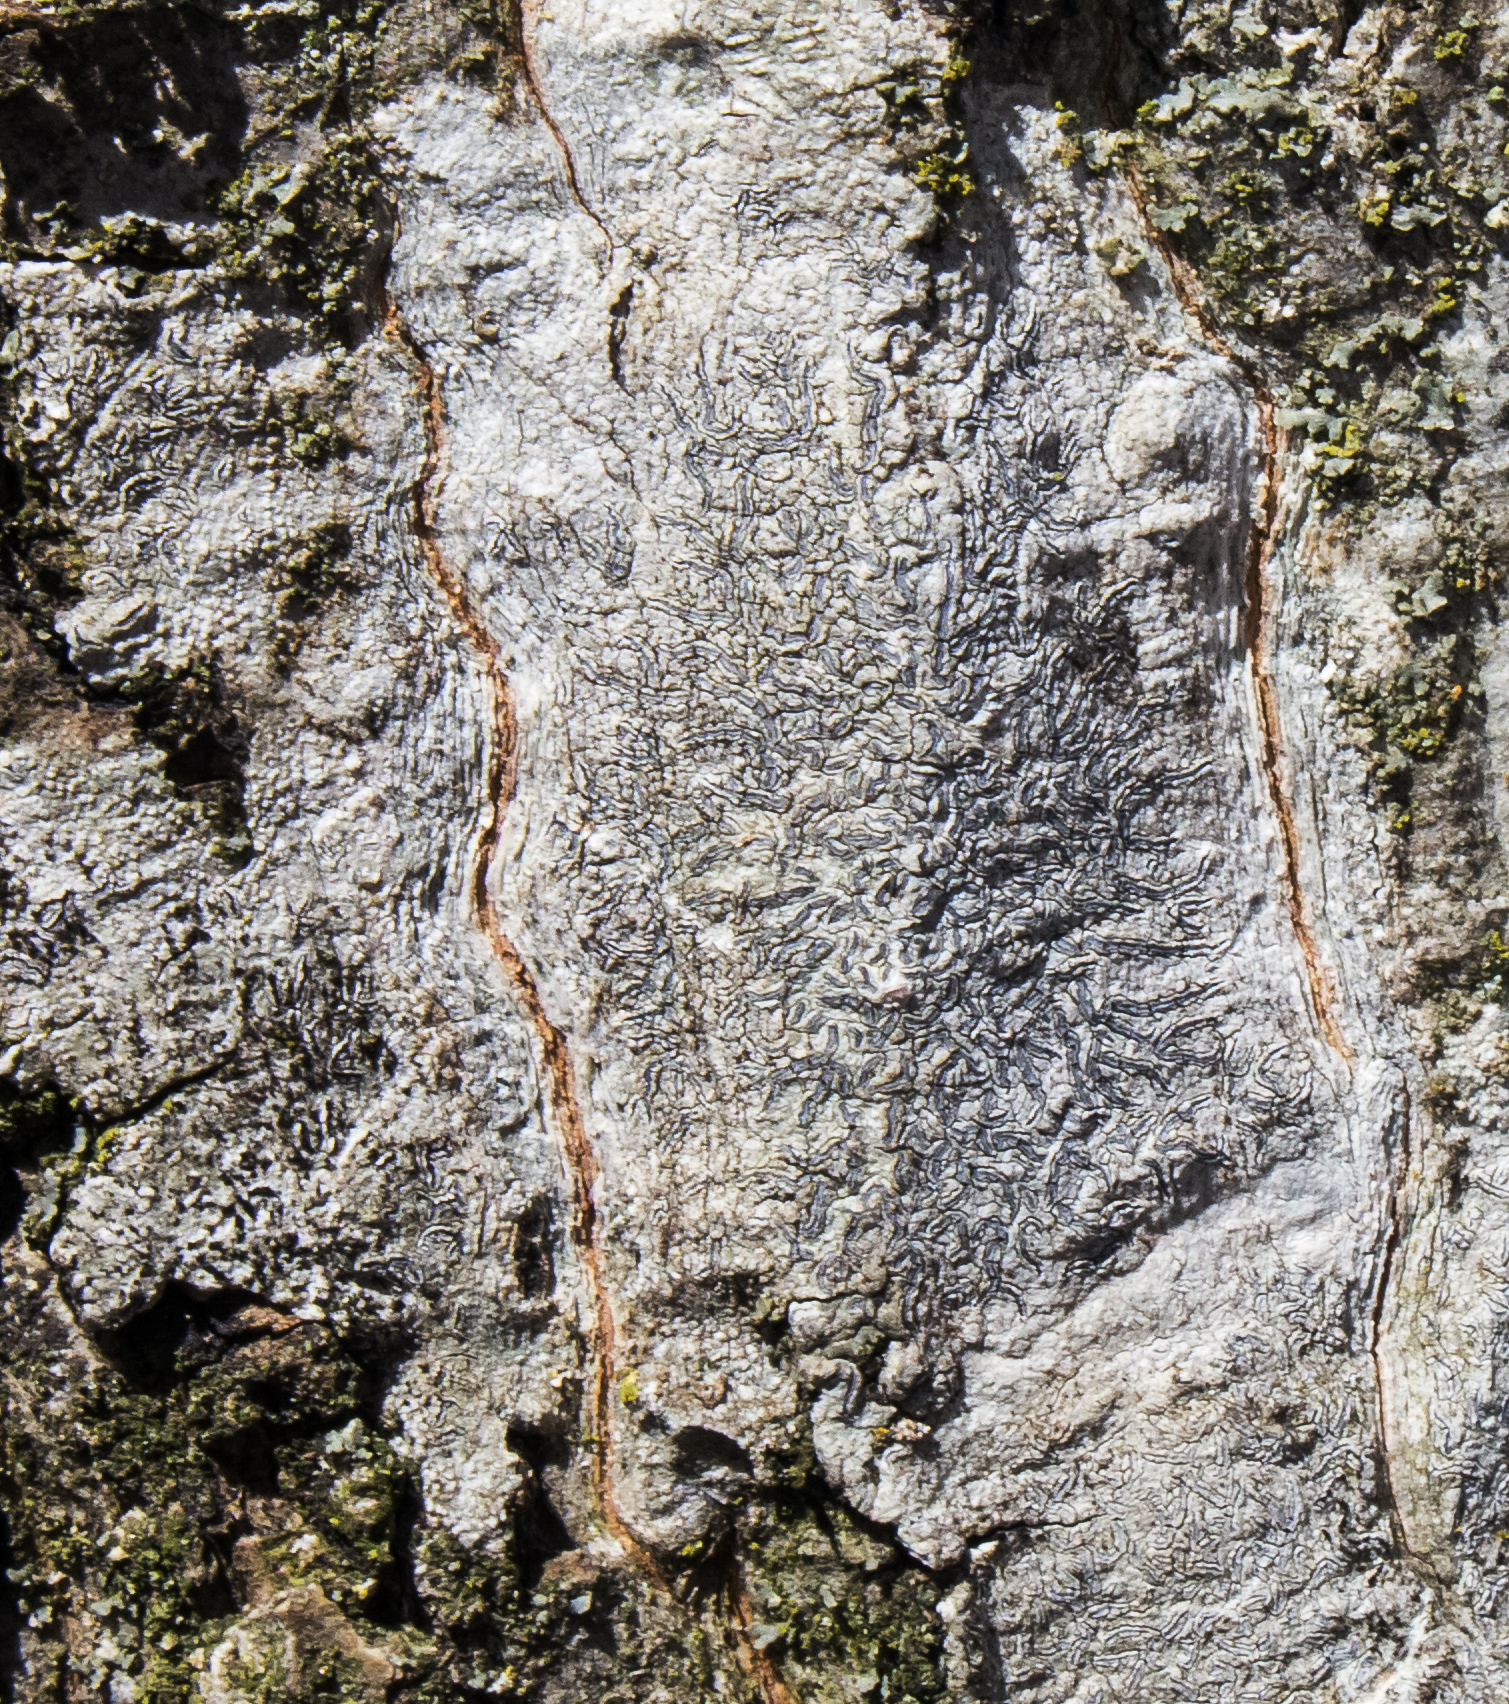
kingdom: Fungi
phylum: Ascomycota
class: Lecanoromycetes
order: Ostropales
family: Graphidaceae
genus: Graphis
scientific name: Graphis scripta
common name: Script lichen
